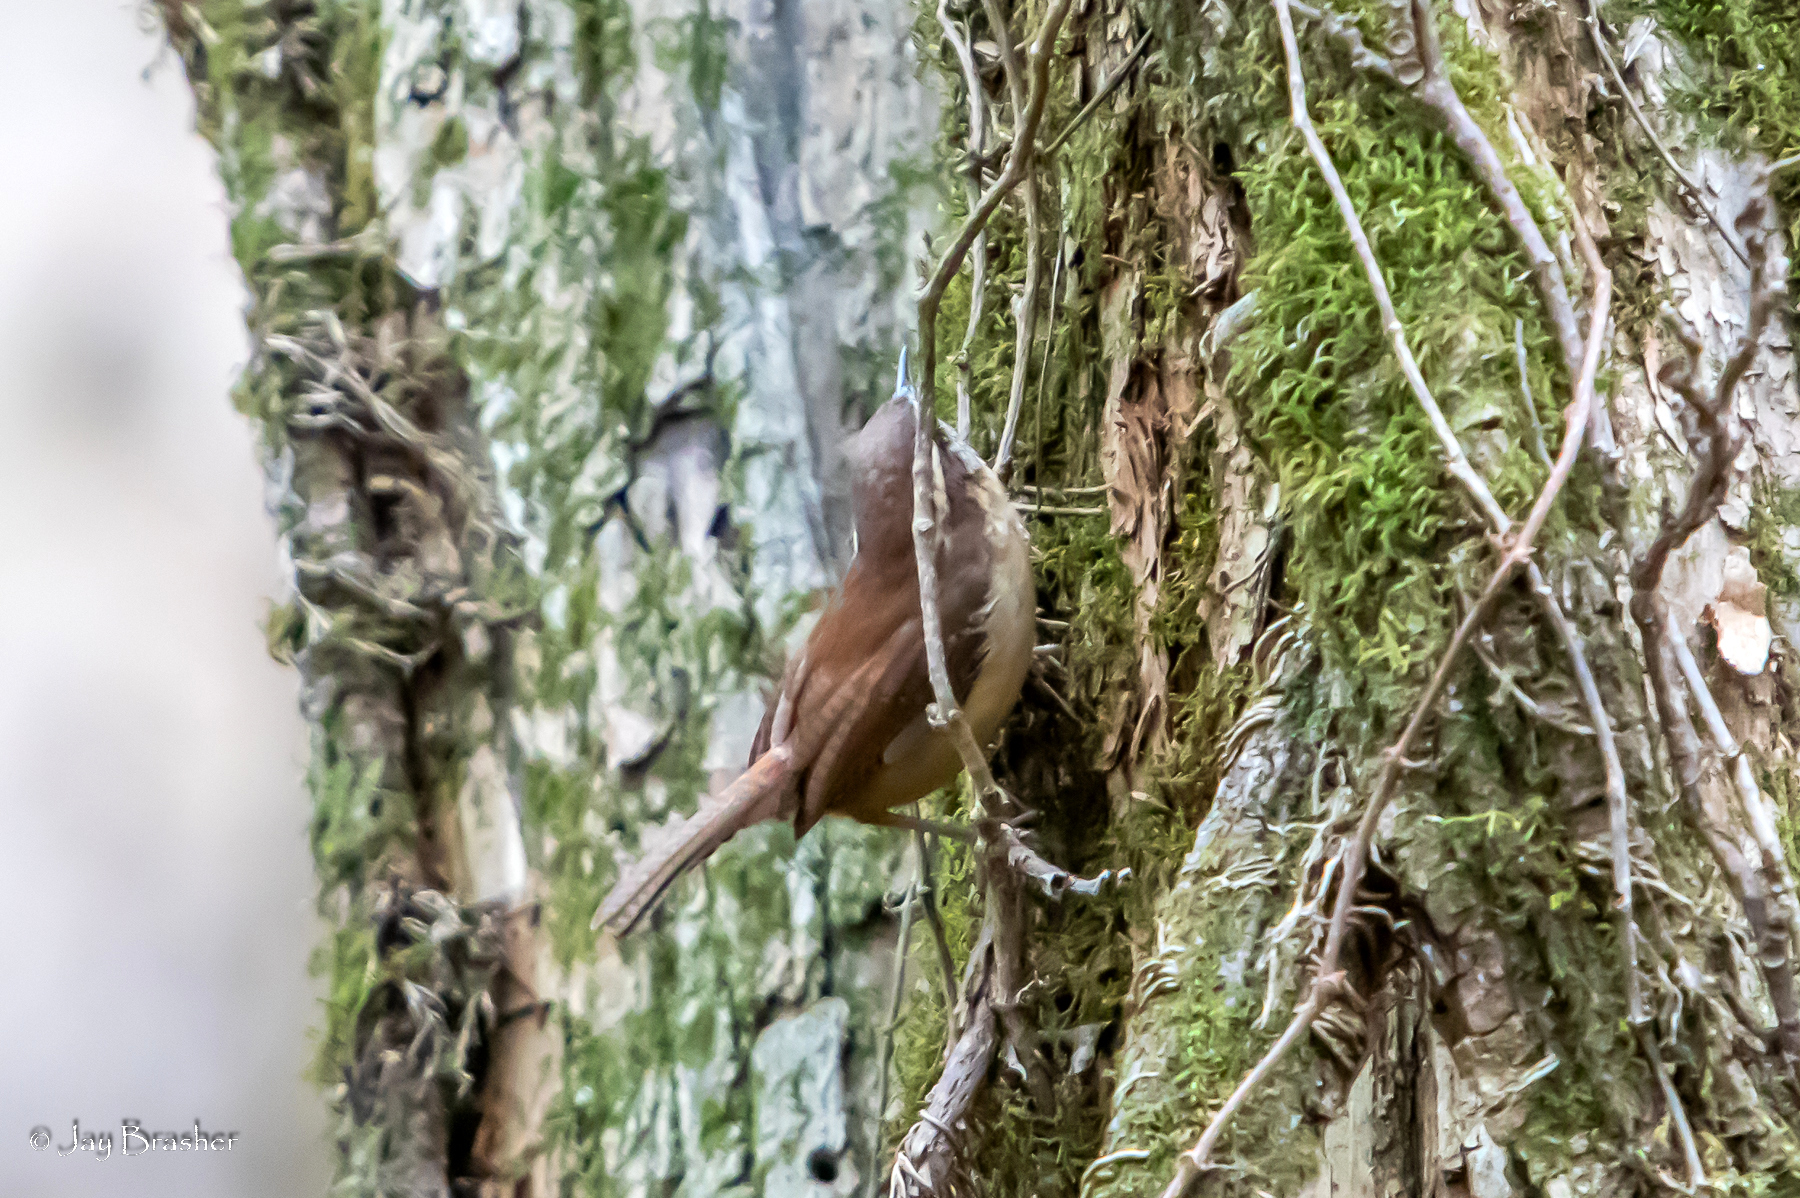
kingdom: Animalia
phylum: Chordata
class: Aves
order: Passeriformes
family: Troglodytidae
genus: Thryothorus
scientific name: Thryothorus ludovicianus
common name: Carolina wren
